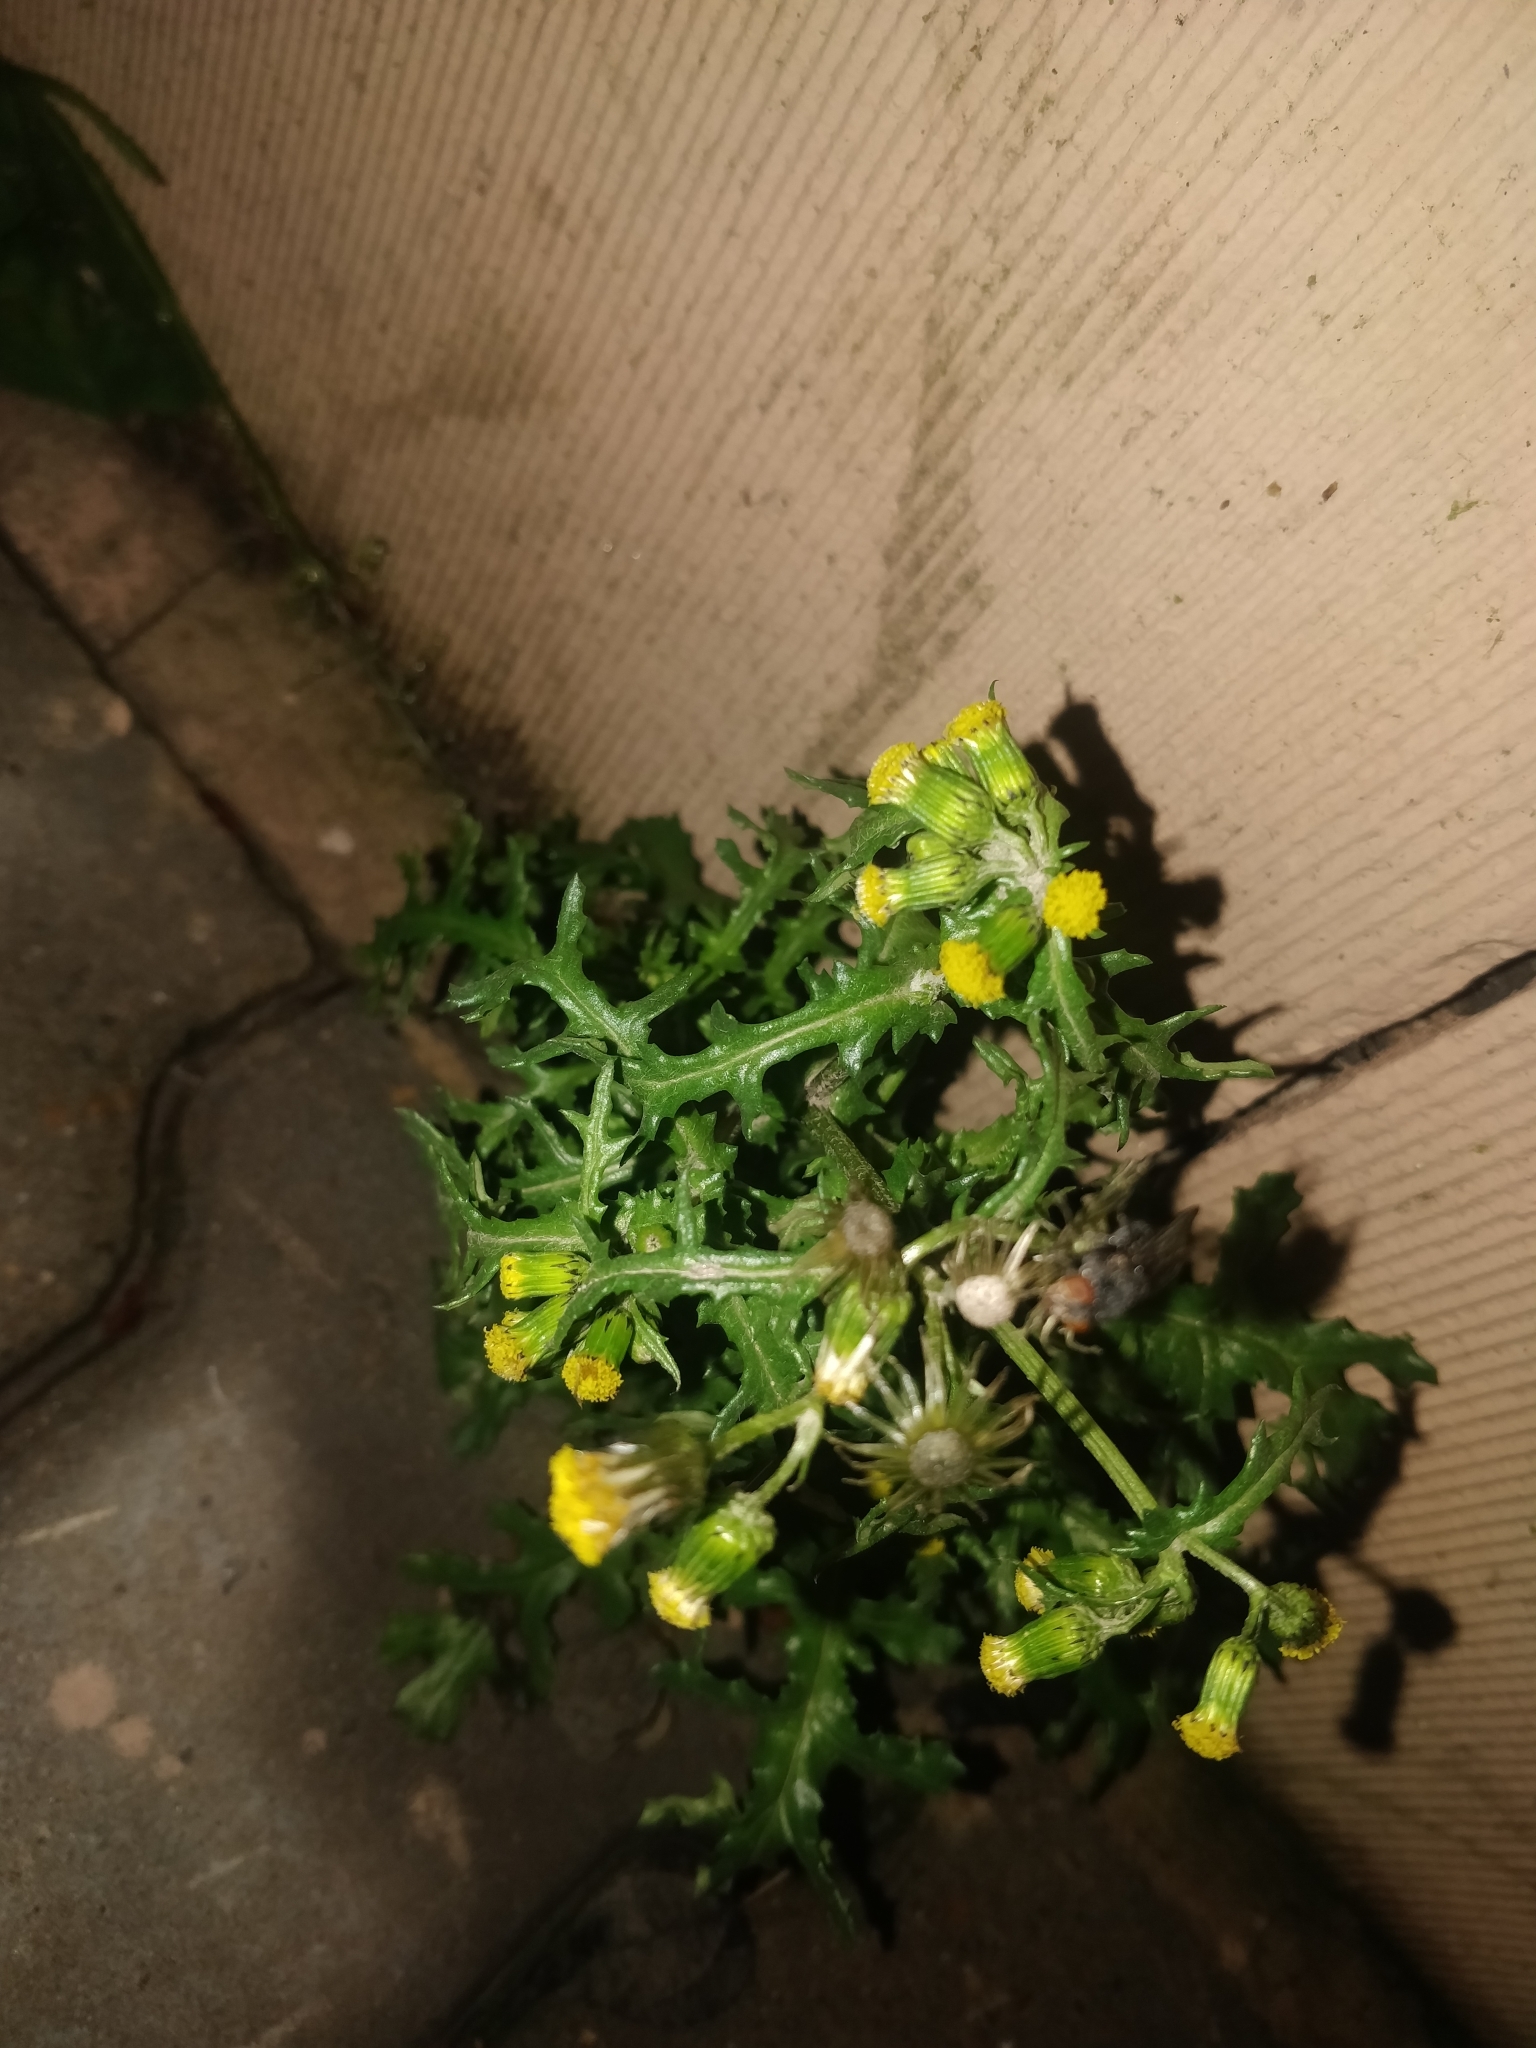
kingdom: Plantae
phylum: Tracheophyta
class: Magnoliopsida
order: Asterales
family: Asteraceae
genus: Senecio
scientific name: Senecio vulgaris
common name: Old-man-in-the-spring
